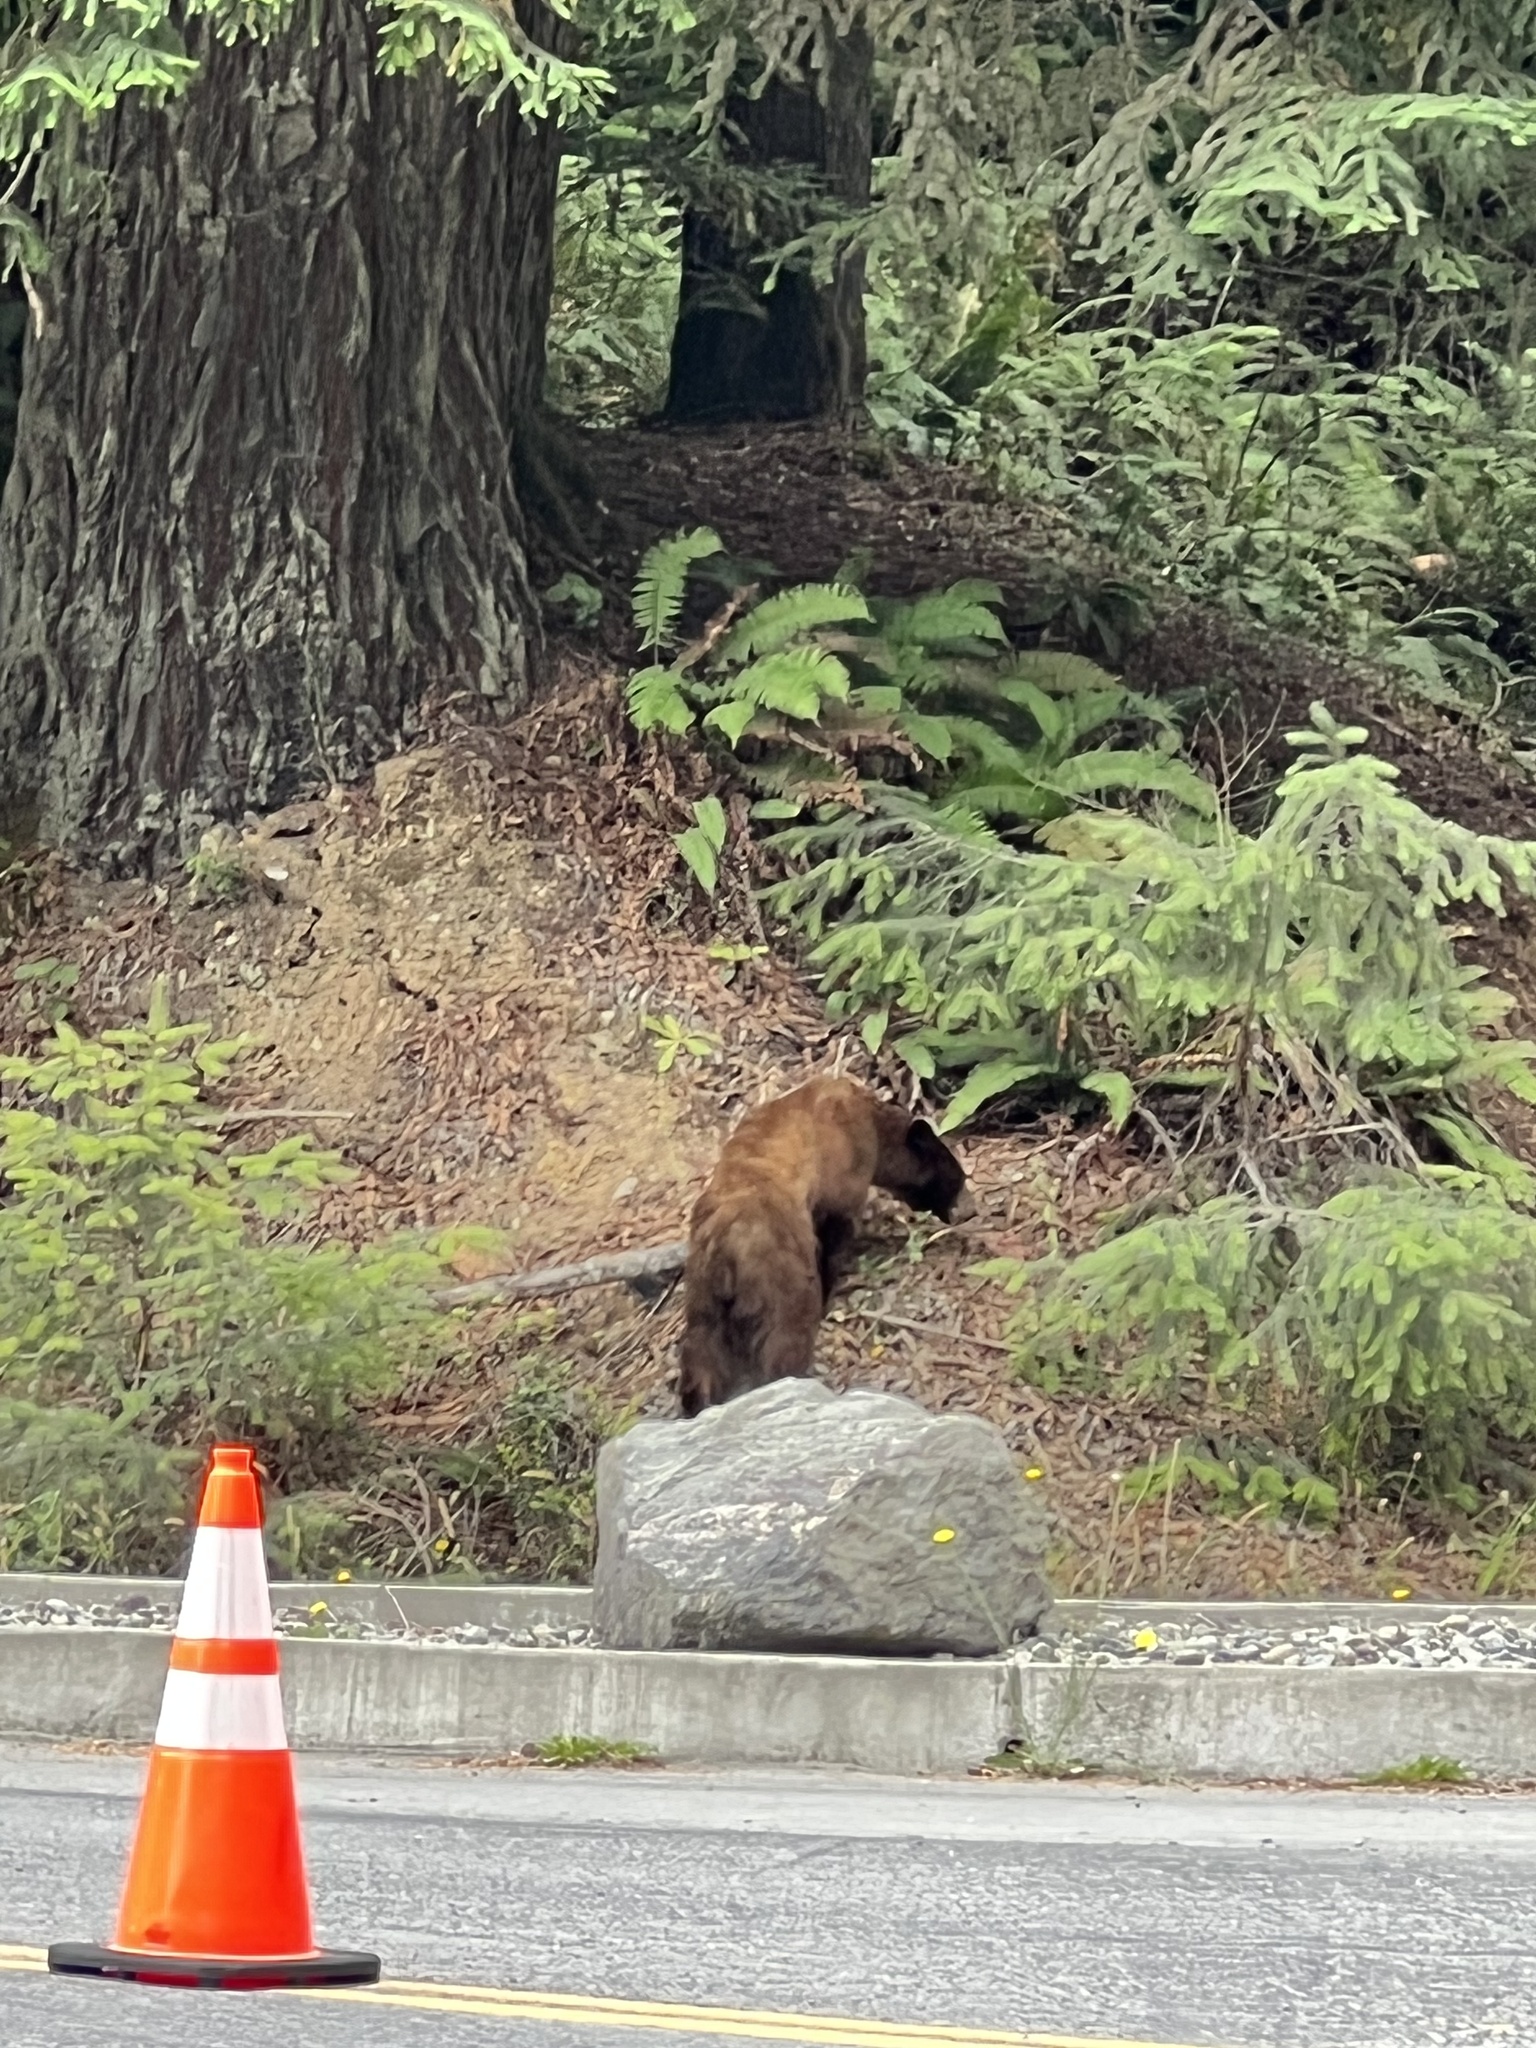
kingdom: Animalia
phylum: Chordata
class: Mammalia
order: Carnivora
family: Ursidae
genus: Ursus
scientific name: Ursus americanus
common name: American black bear
